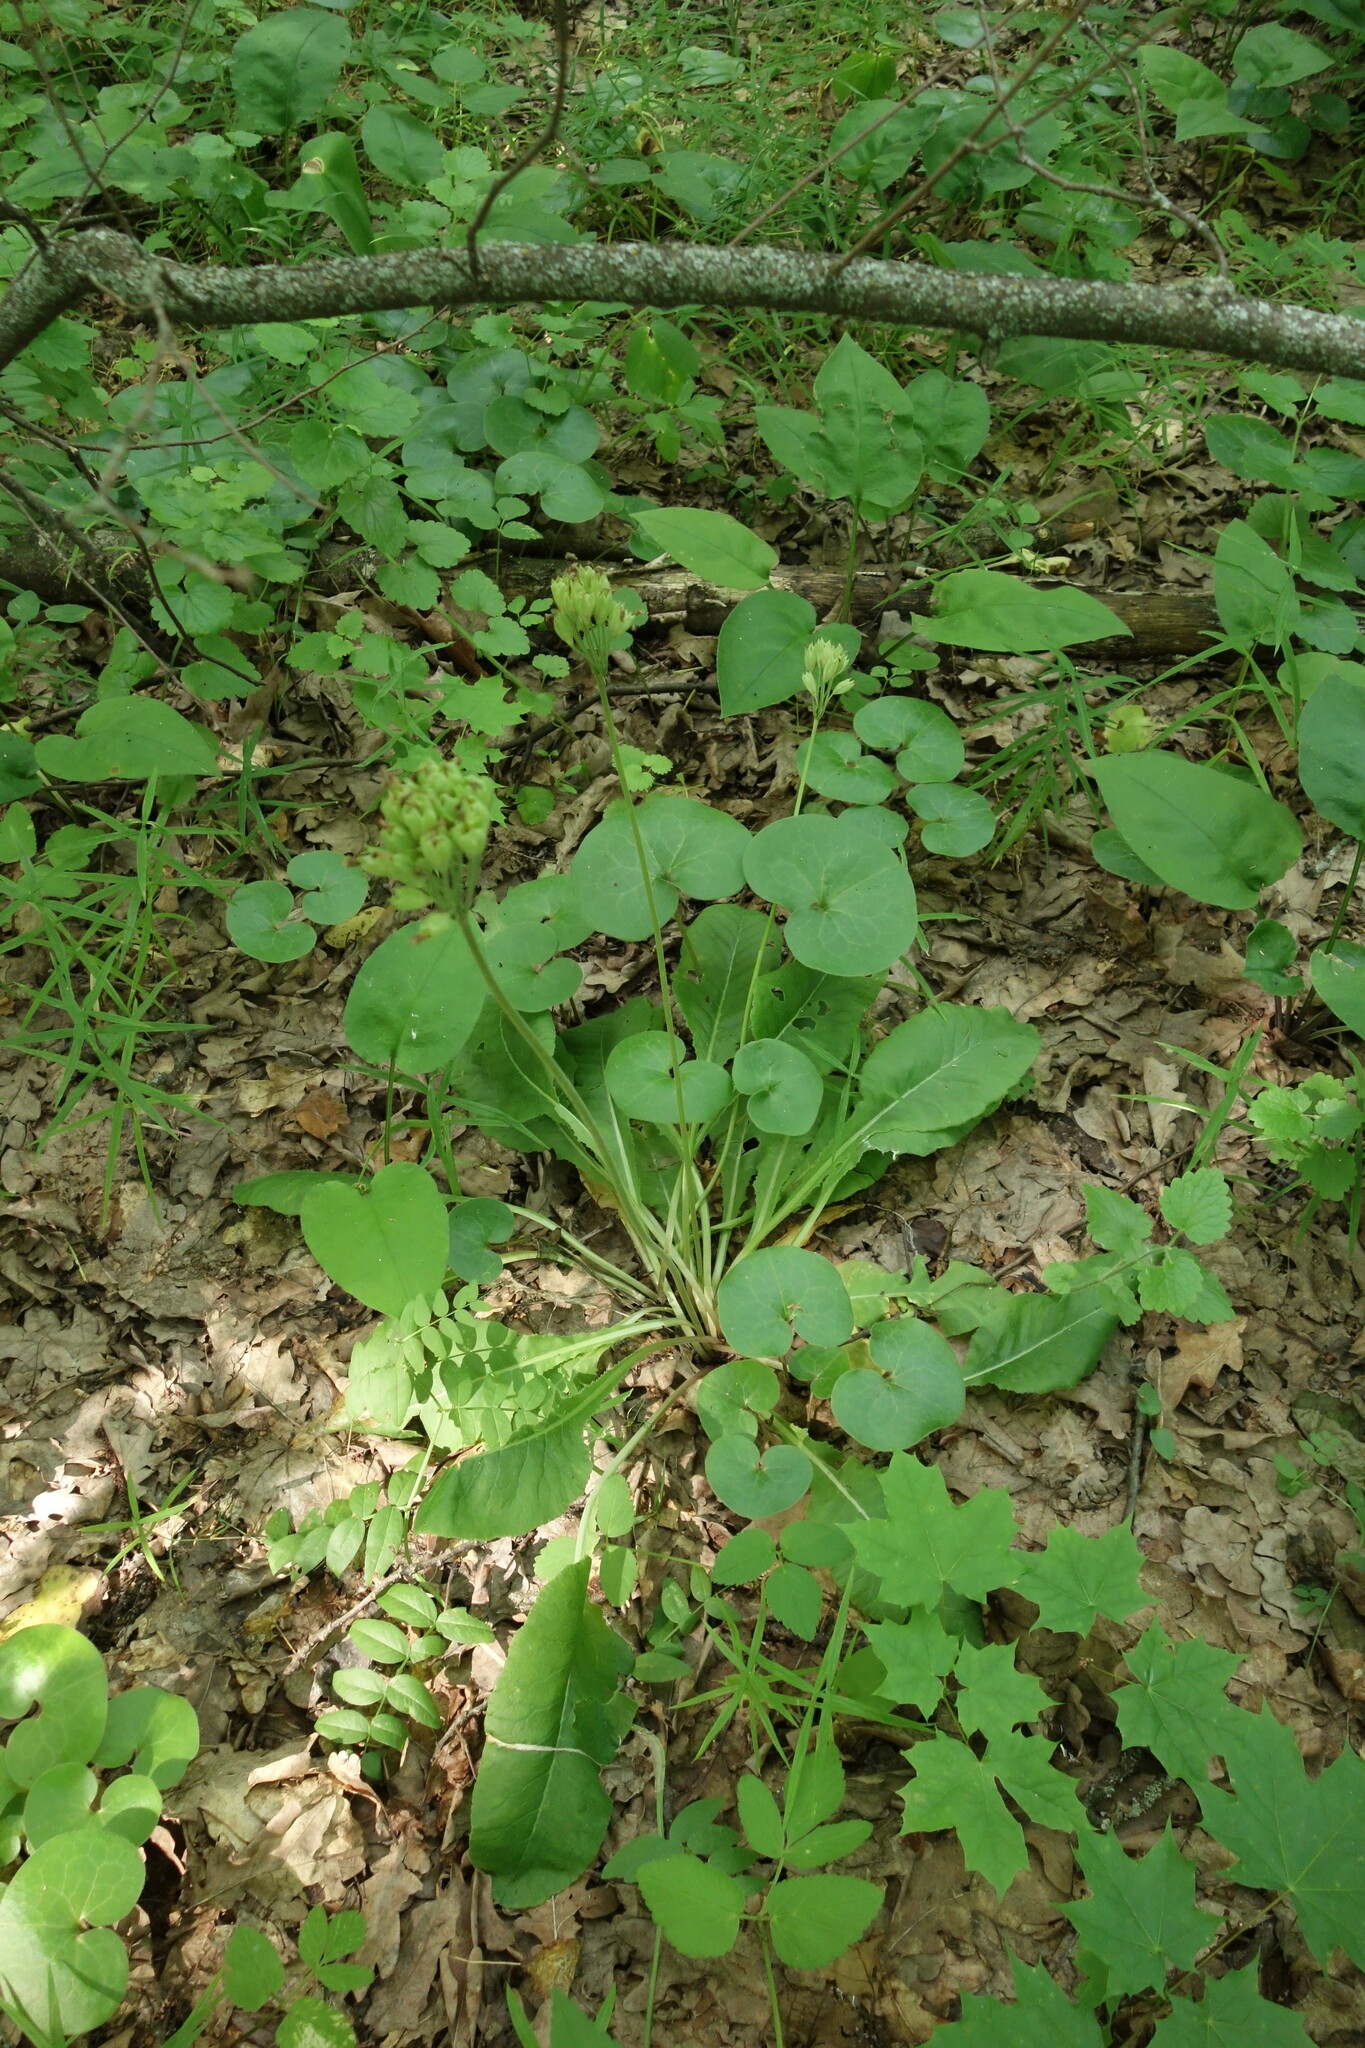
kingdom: Plantae
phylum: Tracheophyta
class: Magnoliopsida
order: Ericales
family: Primulaceae
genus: Primula
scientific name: Primula veris
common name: Cowslip
